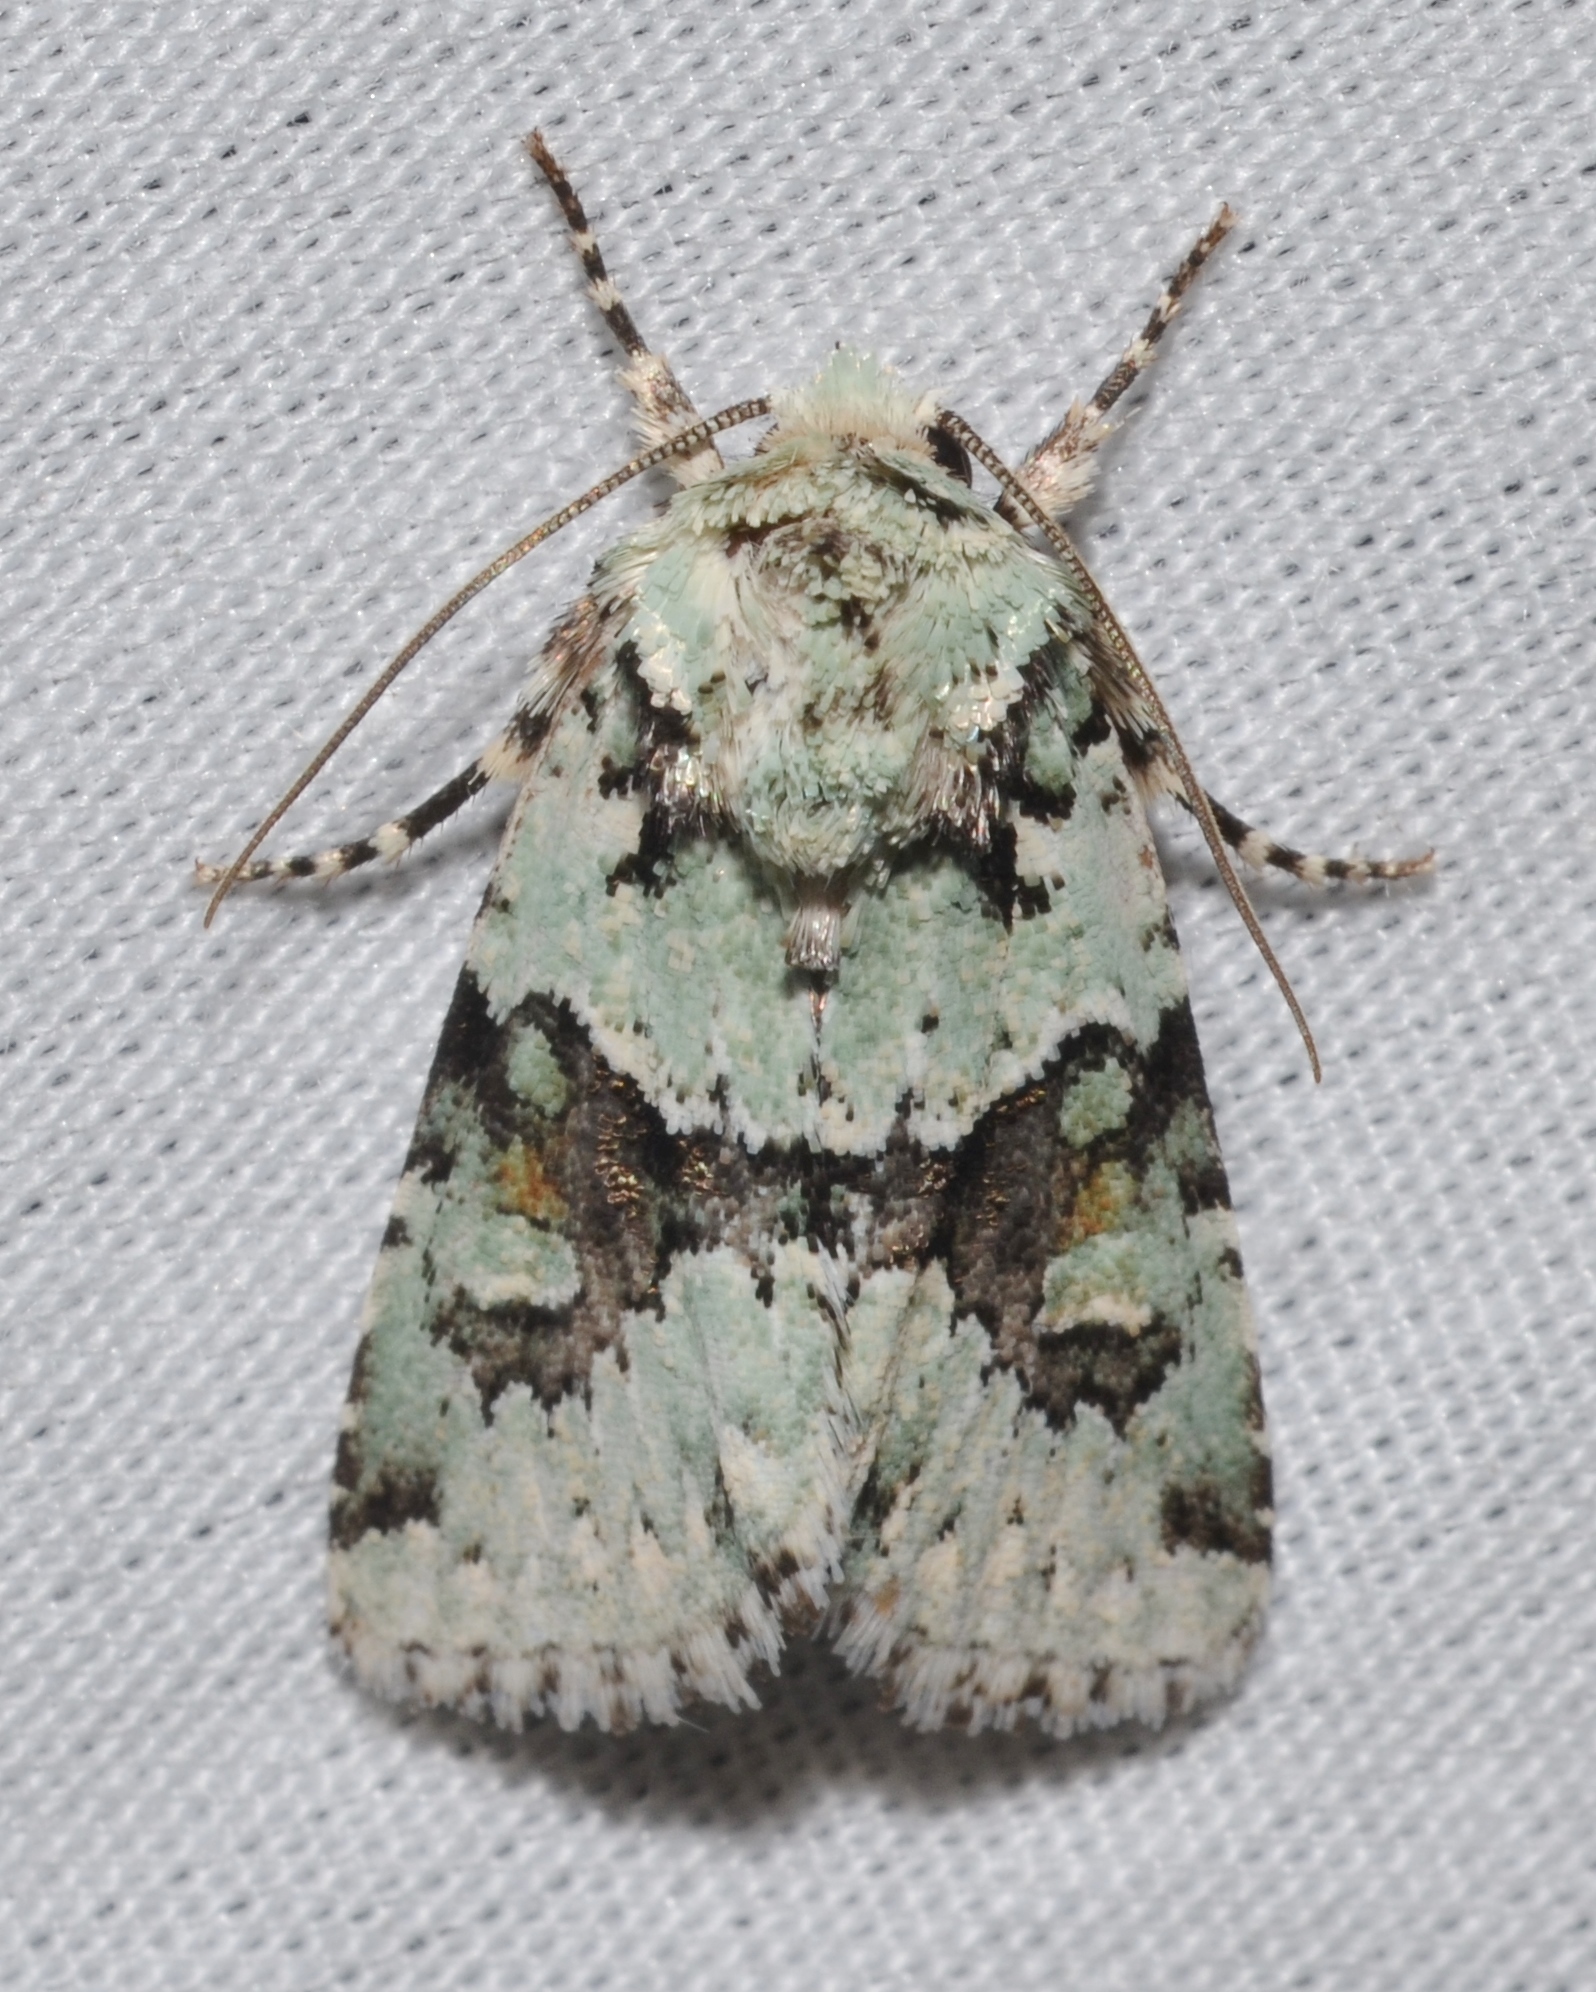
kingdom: Animalia
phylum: Arthropoda
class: Insecta
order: Lepidoptera
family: Noctuidae
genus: Lacinipolia
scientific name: Lacinipolia implicata
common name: Implicit arches
